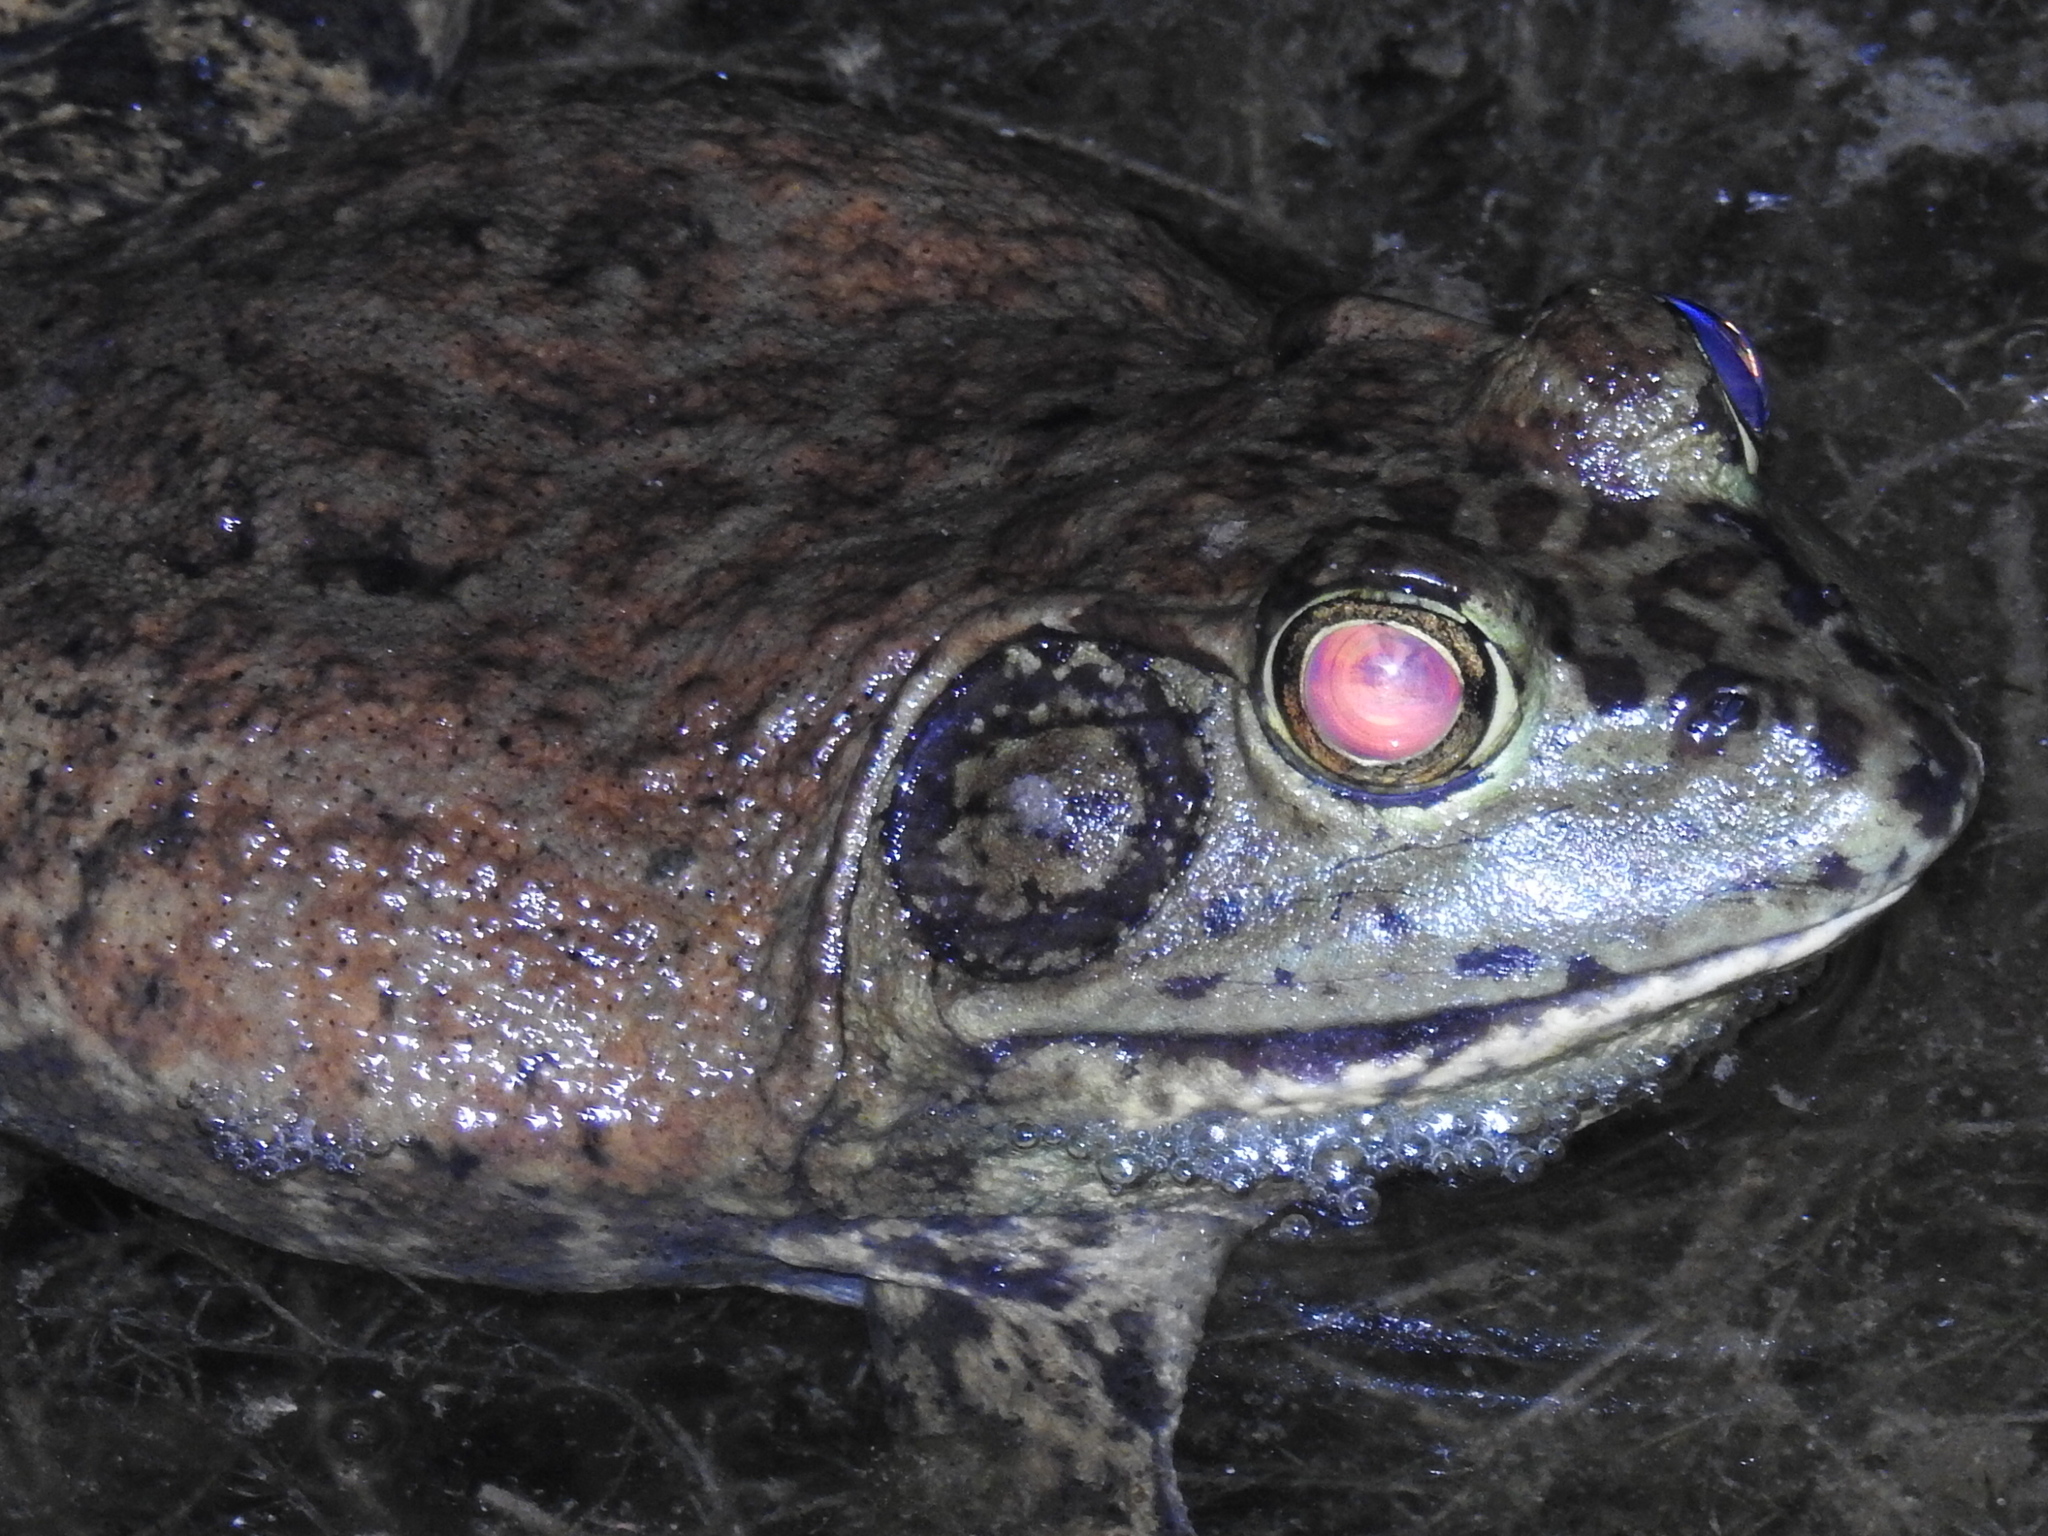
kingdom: Animalia
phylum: Chordata
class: Amphibia
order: Anura
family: Ranidae
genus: Lithobates
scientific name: Lithobates catesbeianus
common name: American bullfrog
